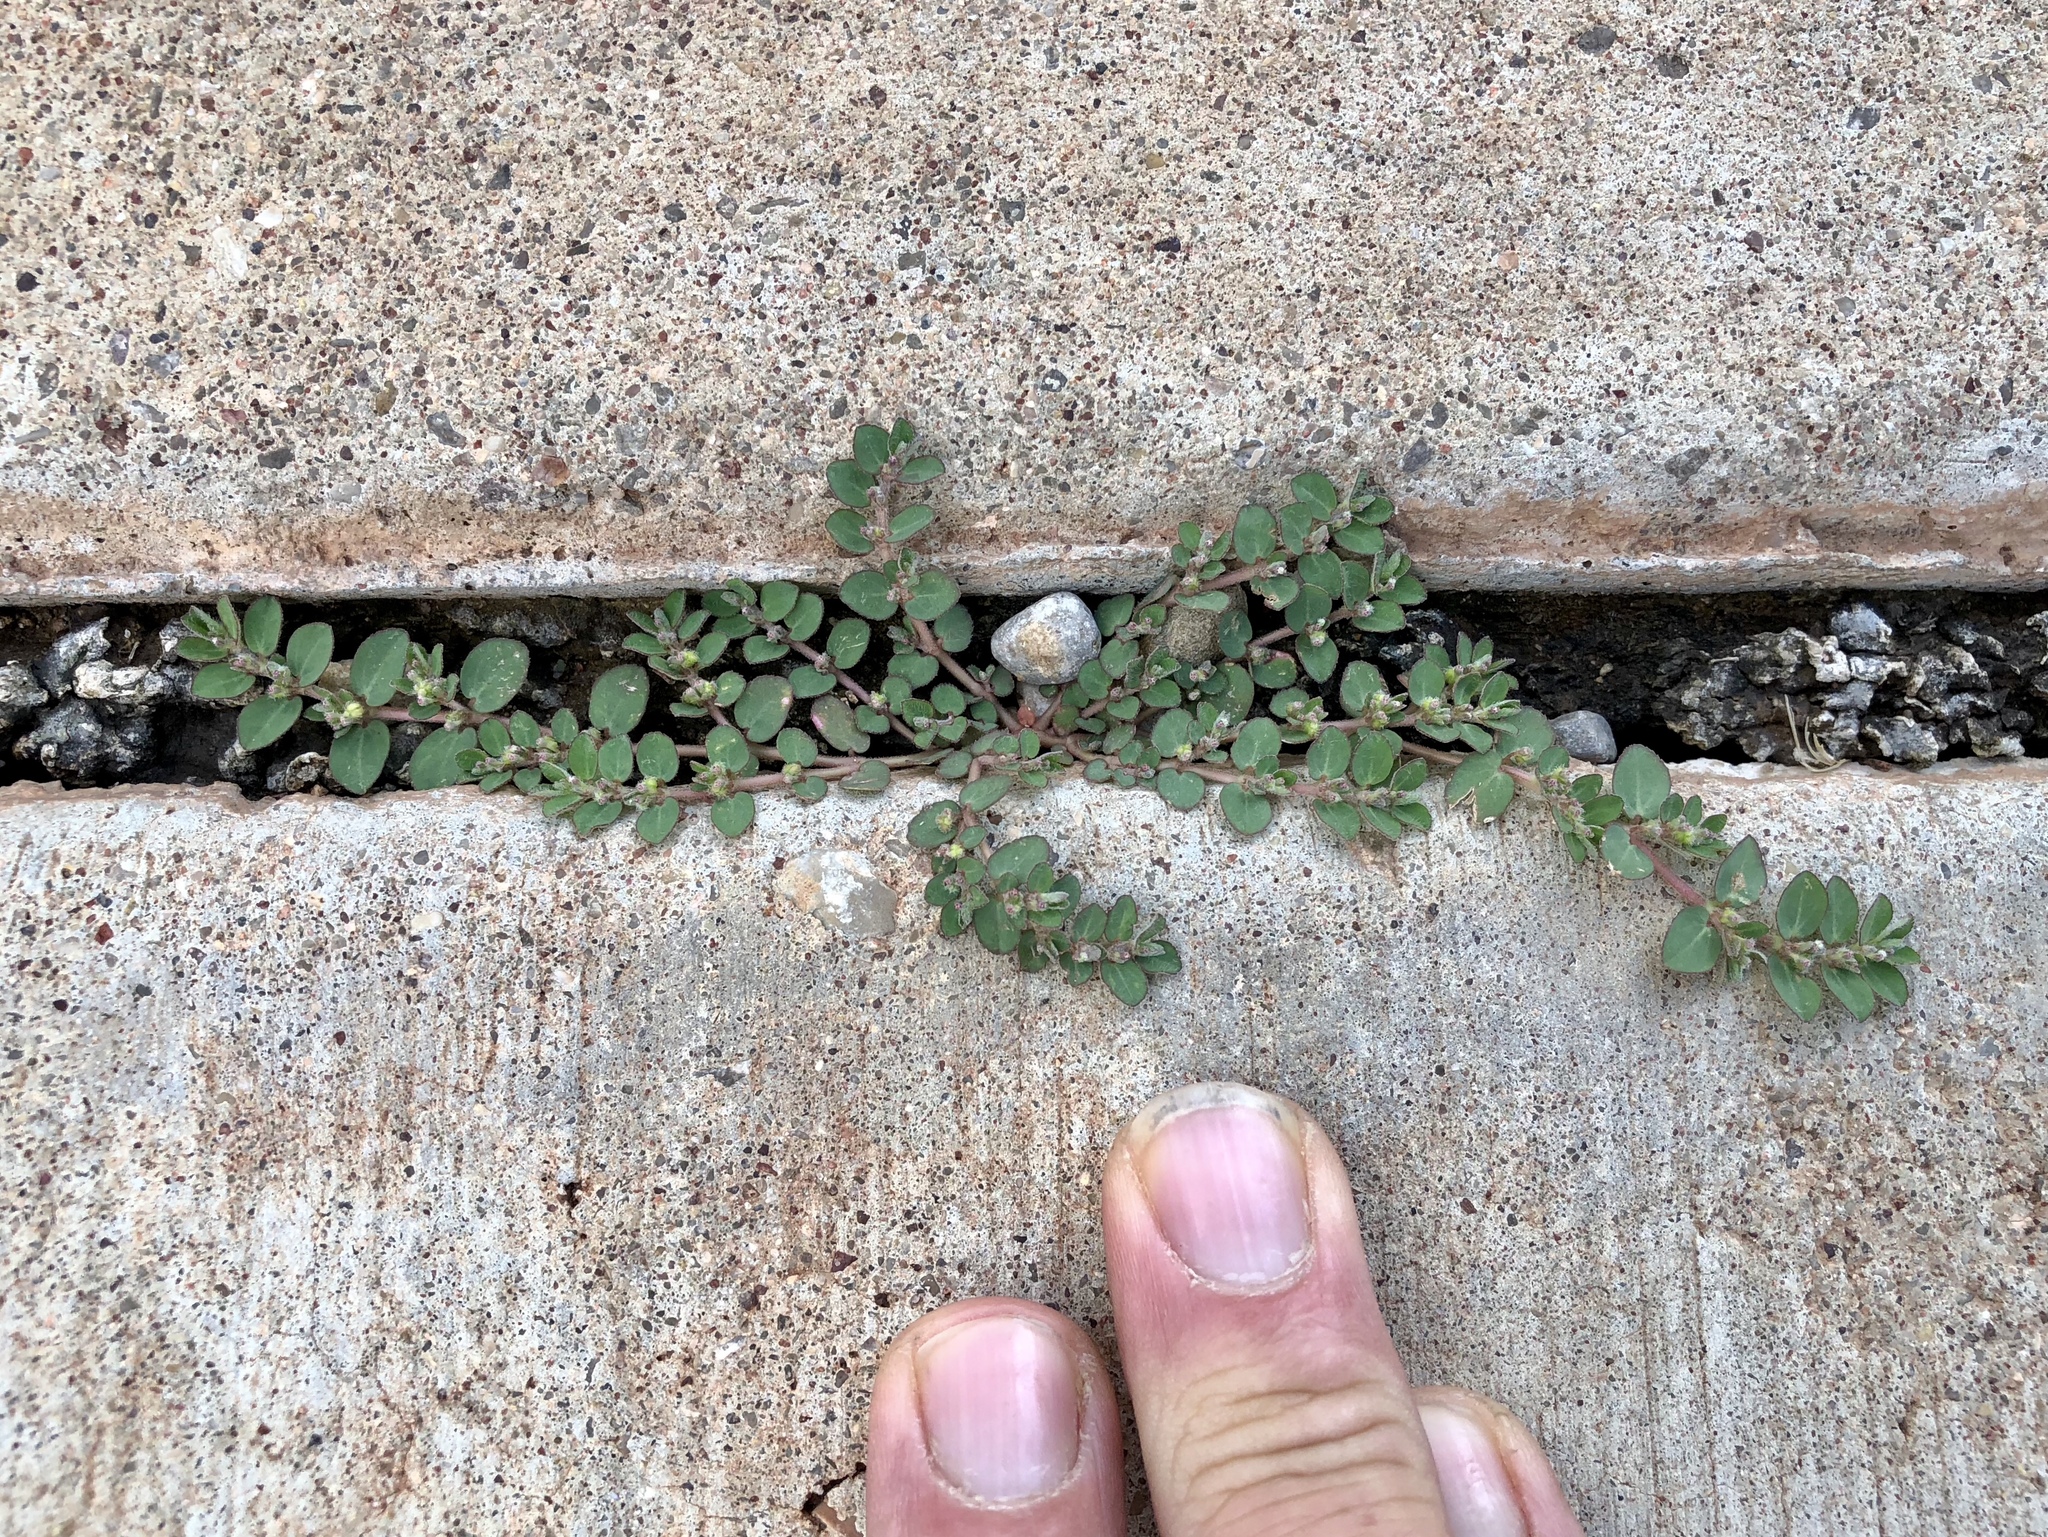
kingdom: Plantae
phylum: Tracheophyta
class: Magnoliopsida
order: Malpighiales
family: Euphorbiaceae
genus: Euphorbia
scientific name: Euphorbia prostrata
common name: Prostrate sandmat
